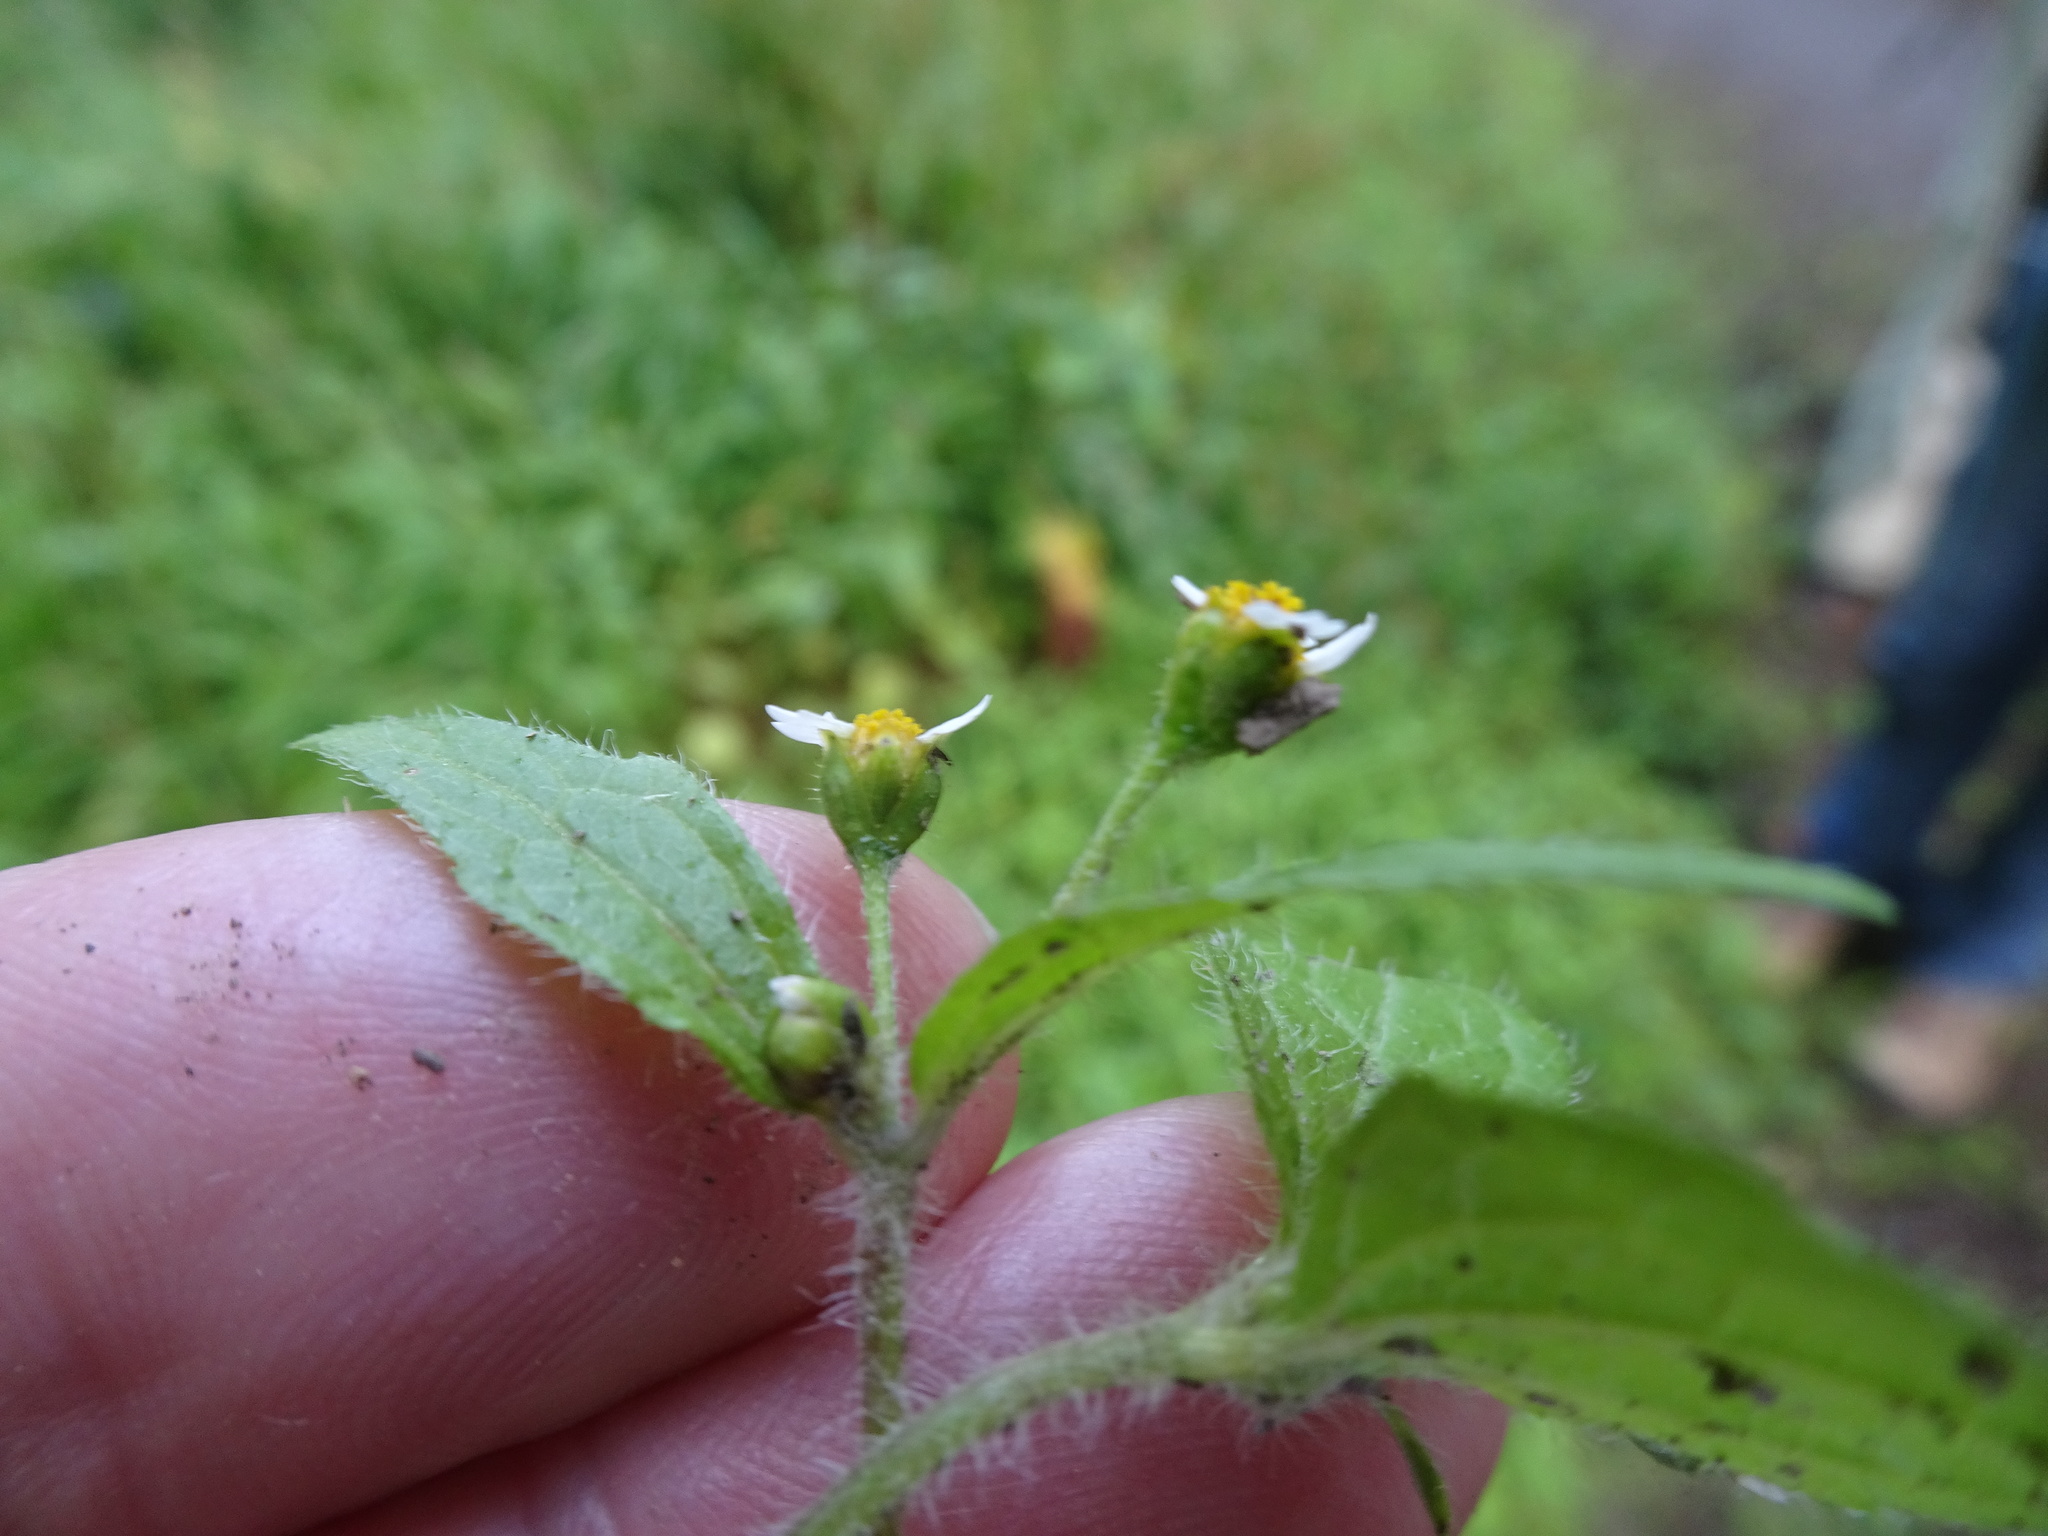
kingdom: Plantae
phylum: Tracheophyta
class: Magnoliopsida
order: Asterales
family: Asteraceae
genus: Galinsoga
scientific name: Galinsoga quadriradiata
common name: Shaggy soldier
